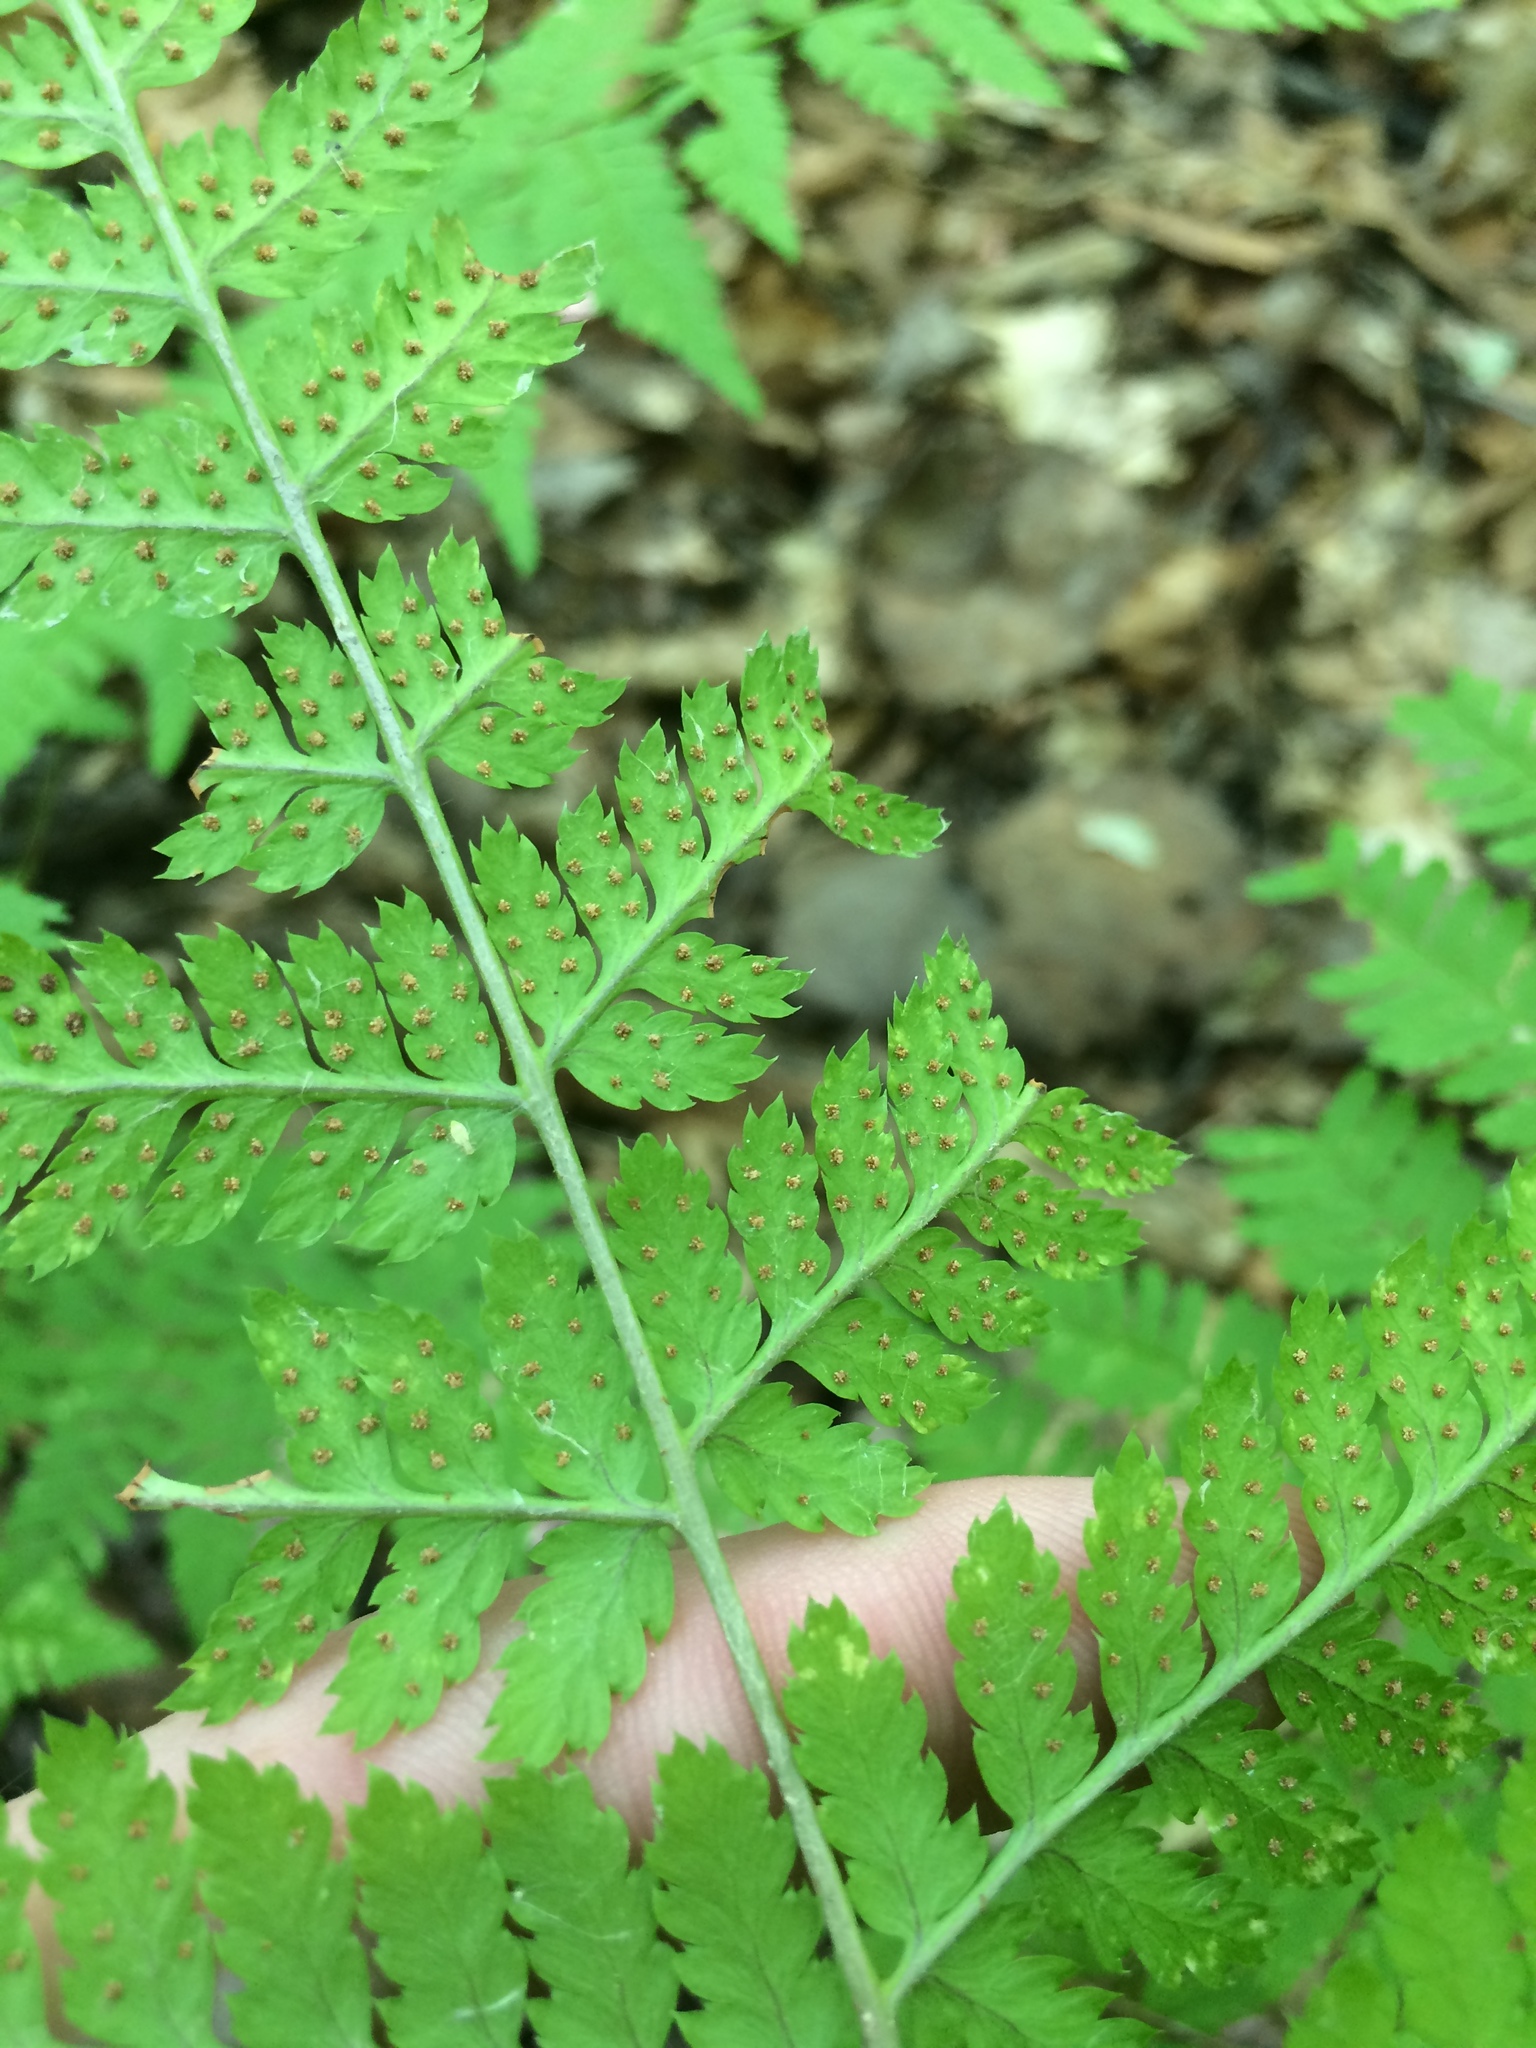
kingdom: Plantae
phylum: Tracheophyta
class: Polypodiopsida
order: Polypodiales
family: Dryopteridaceae
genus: Dryopteris
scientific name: Dryopteris carthusiana
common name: Narrow buckler-fern
